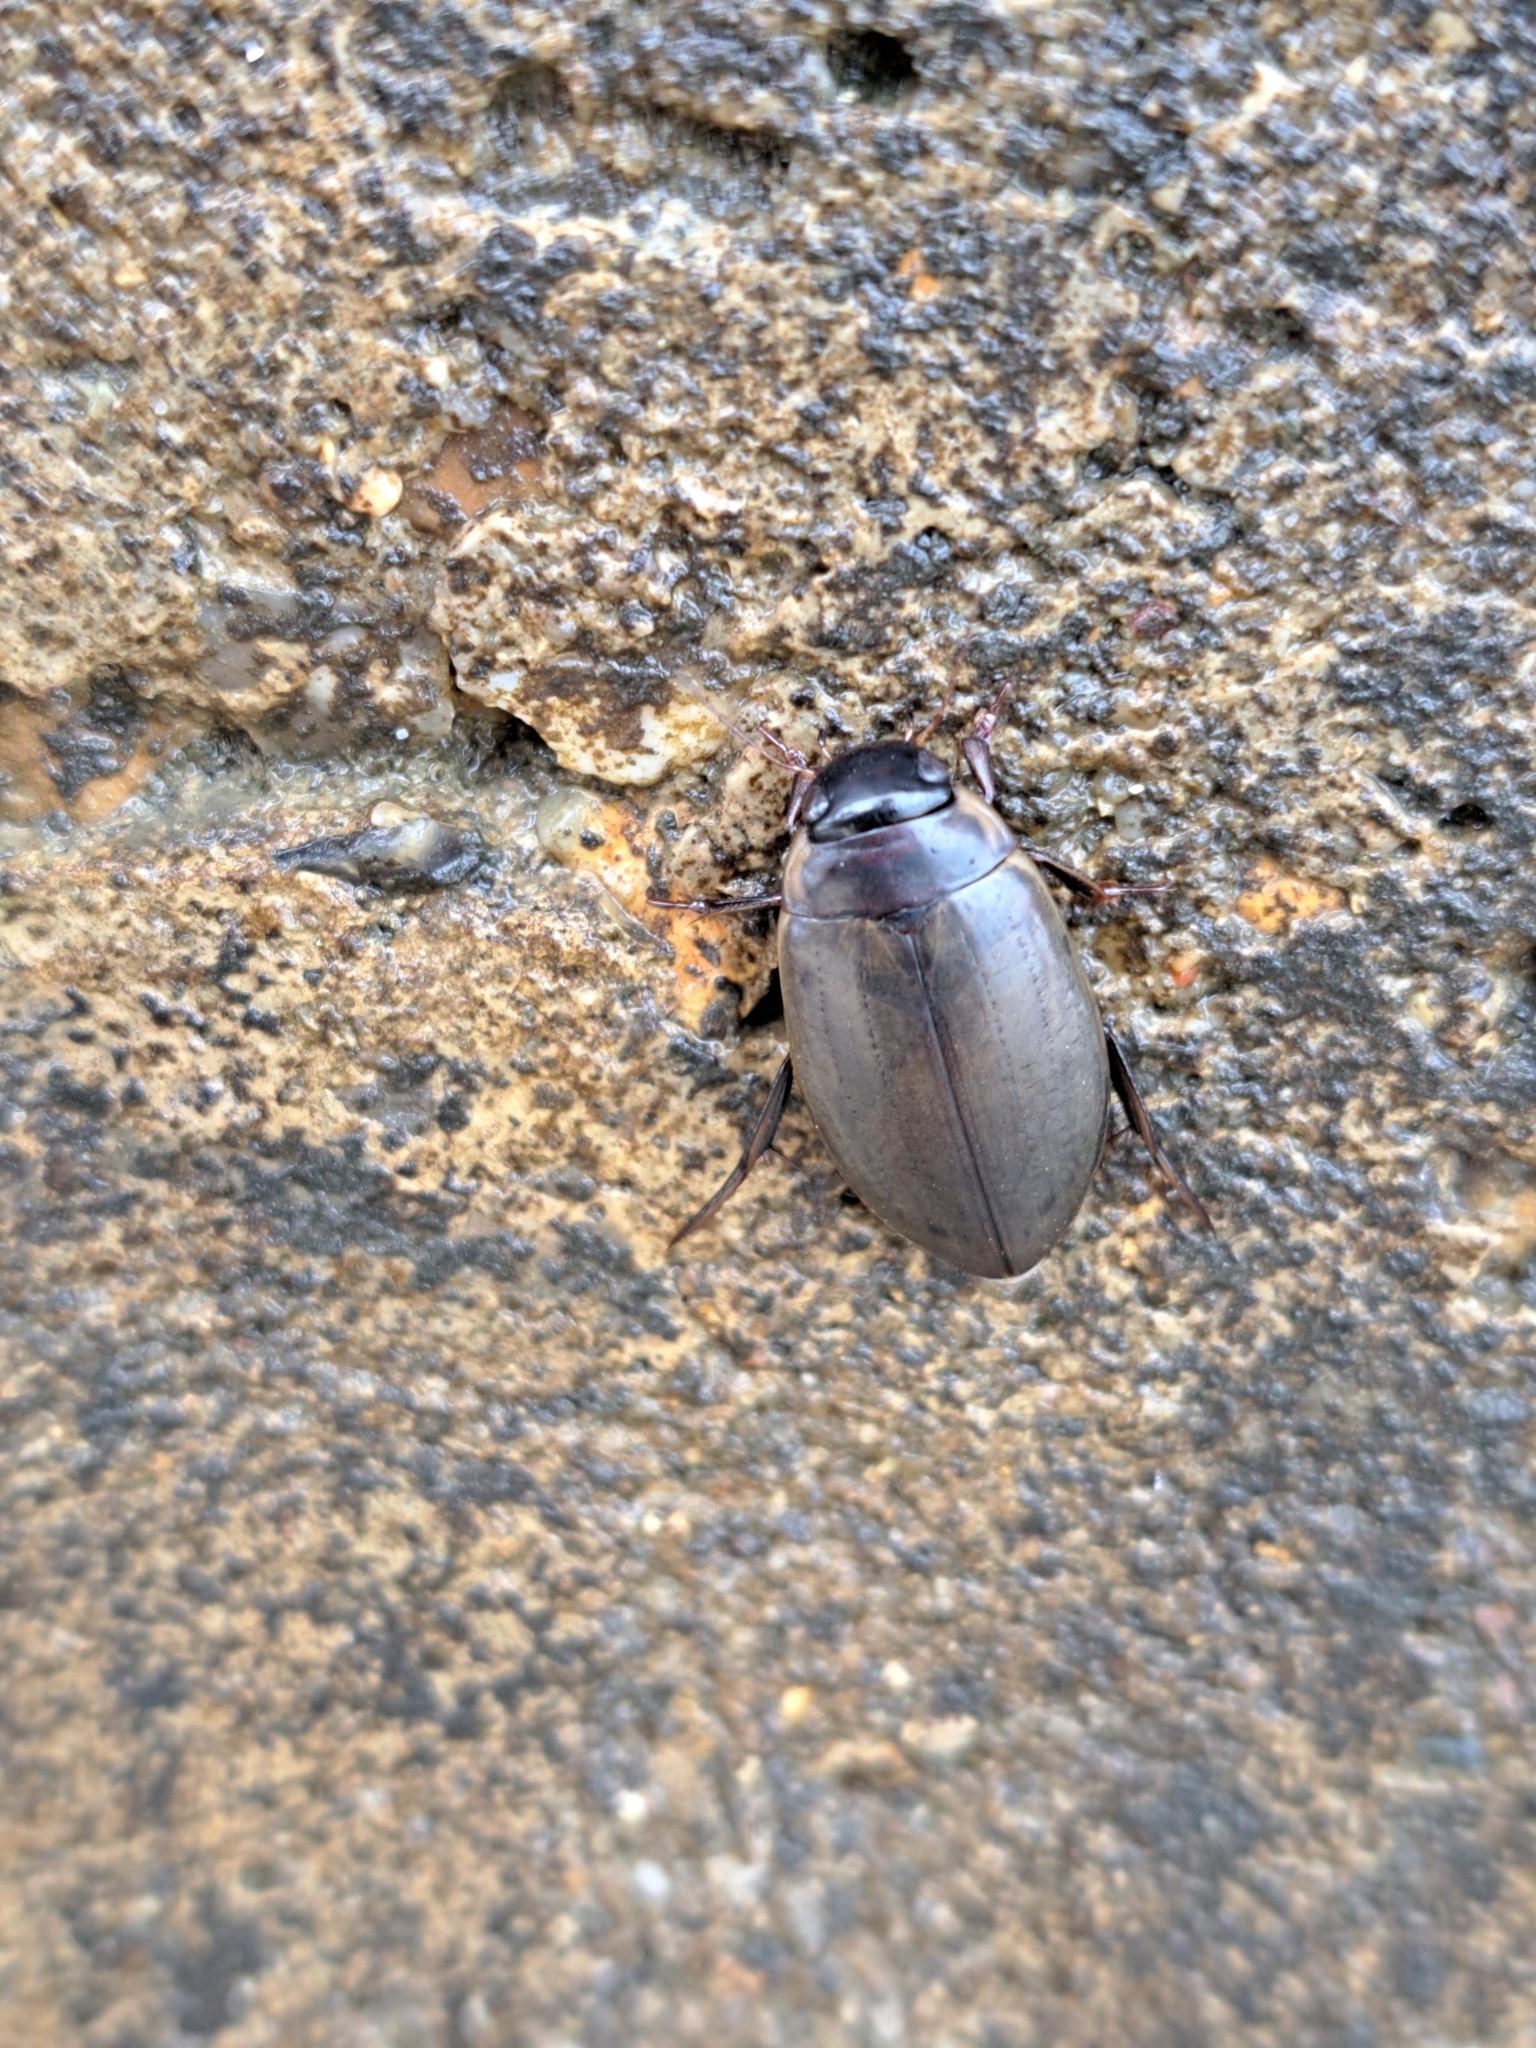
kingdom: Animalia
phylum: Arthropoda
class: Insecta
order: Coleoptera
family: Dytiscidae
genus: Colymbetes
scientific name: Colymbetes fuscus
